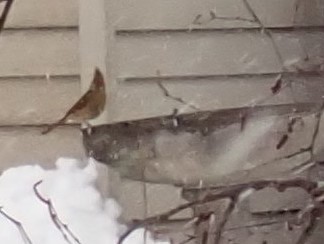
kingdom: Animalia
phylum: Chordata
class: Aves
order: Passeriformes
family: Cardinalidae
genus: Cardinalis
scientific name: Cardinalis cardinalis
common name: Northern cardinal
